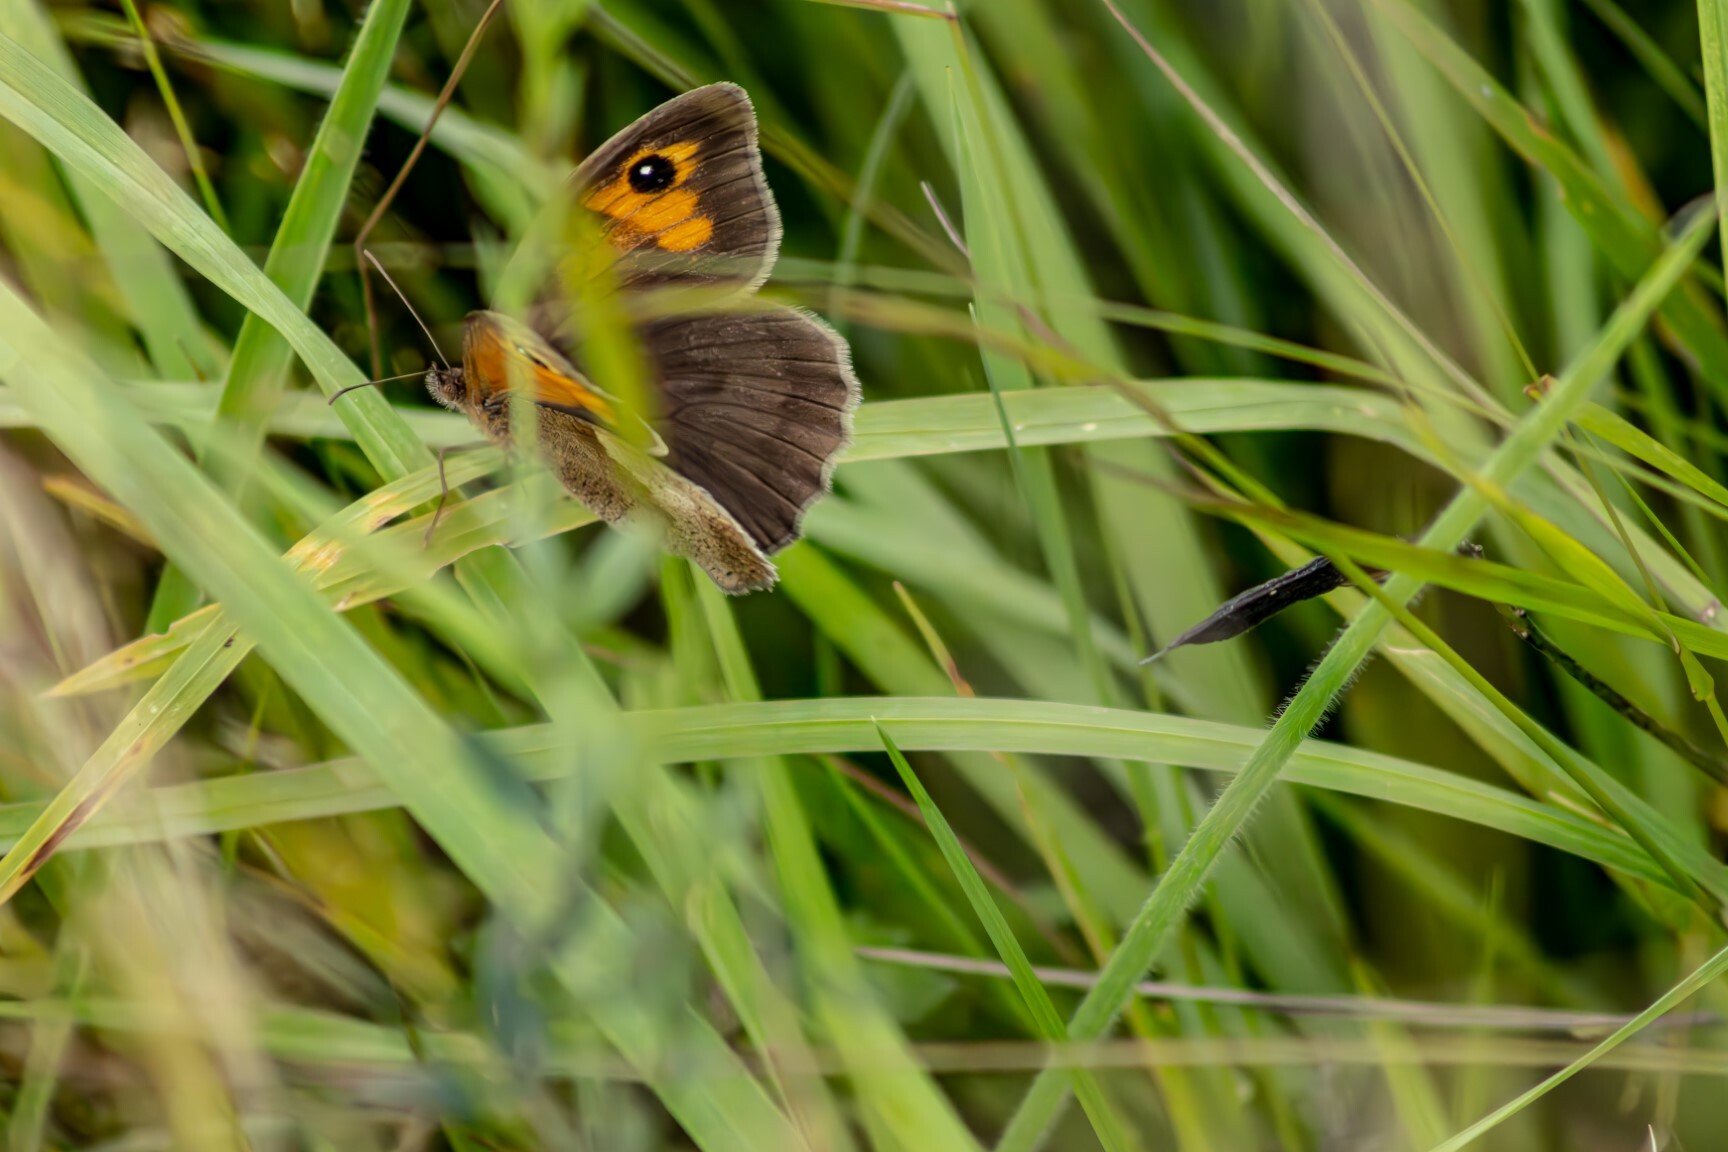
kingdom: Animalia
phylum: Arthropoda
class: Insecta
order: Lepidoptera
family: Nymphalidae
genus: Maniola
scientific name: Maniola jurtina
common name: Meadow brown
